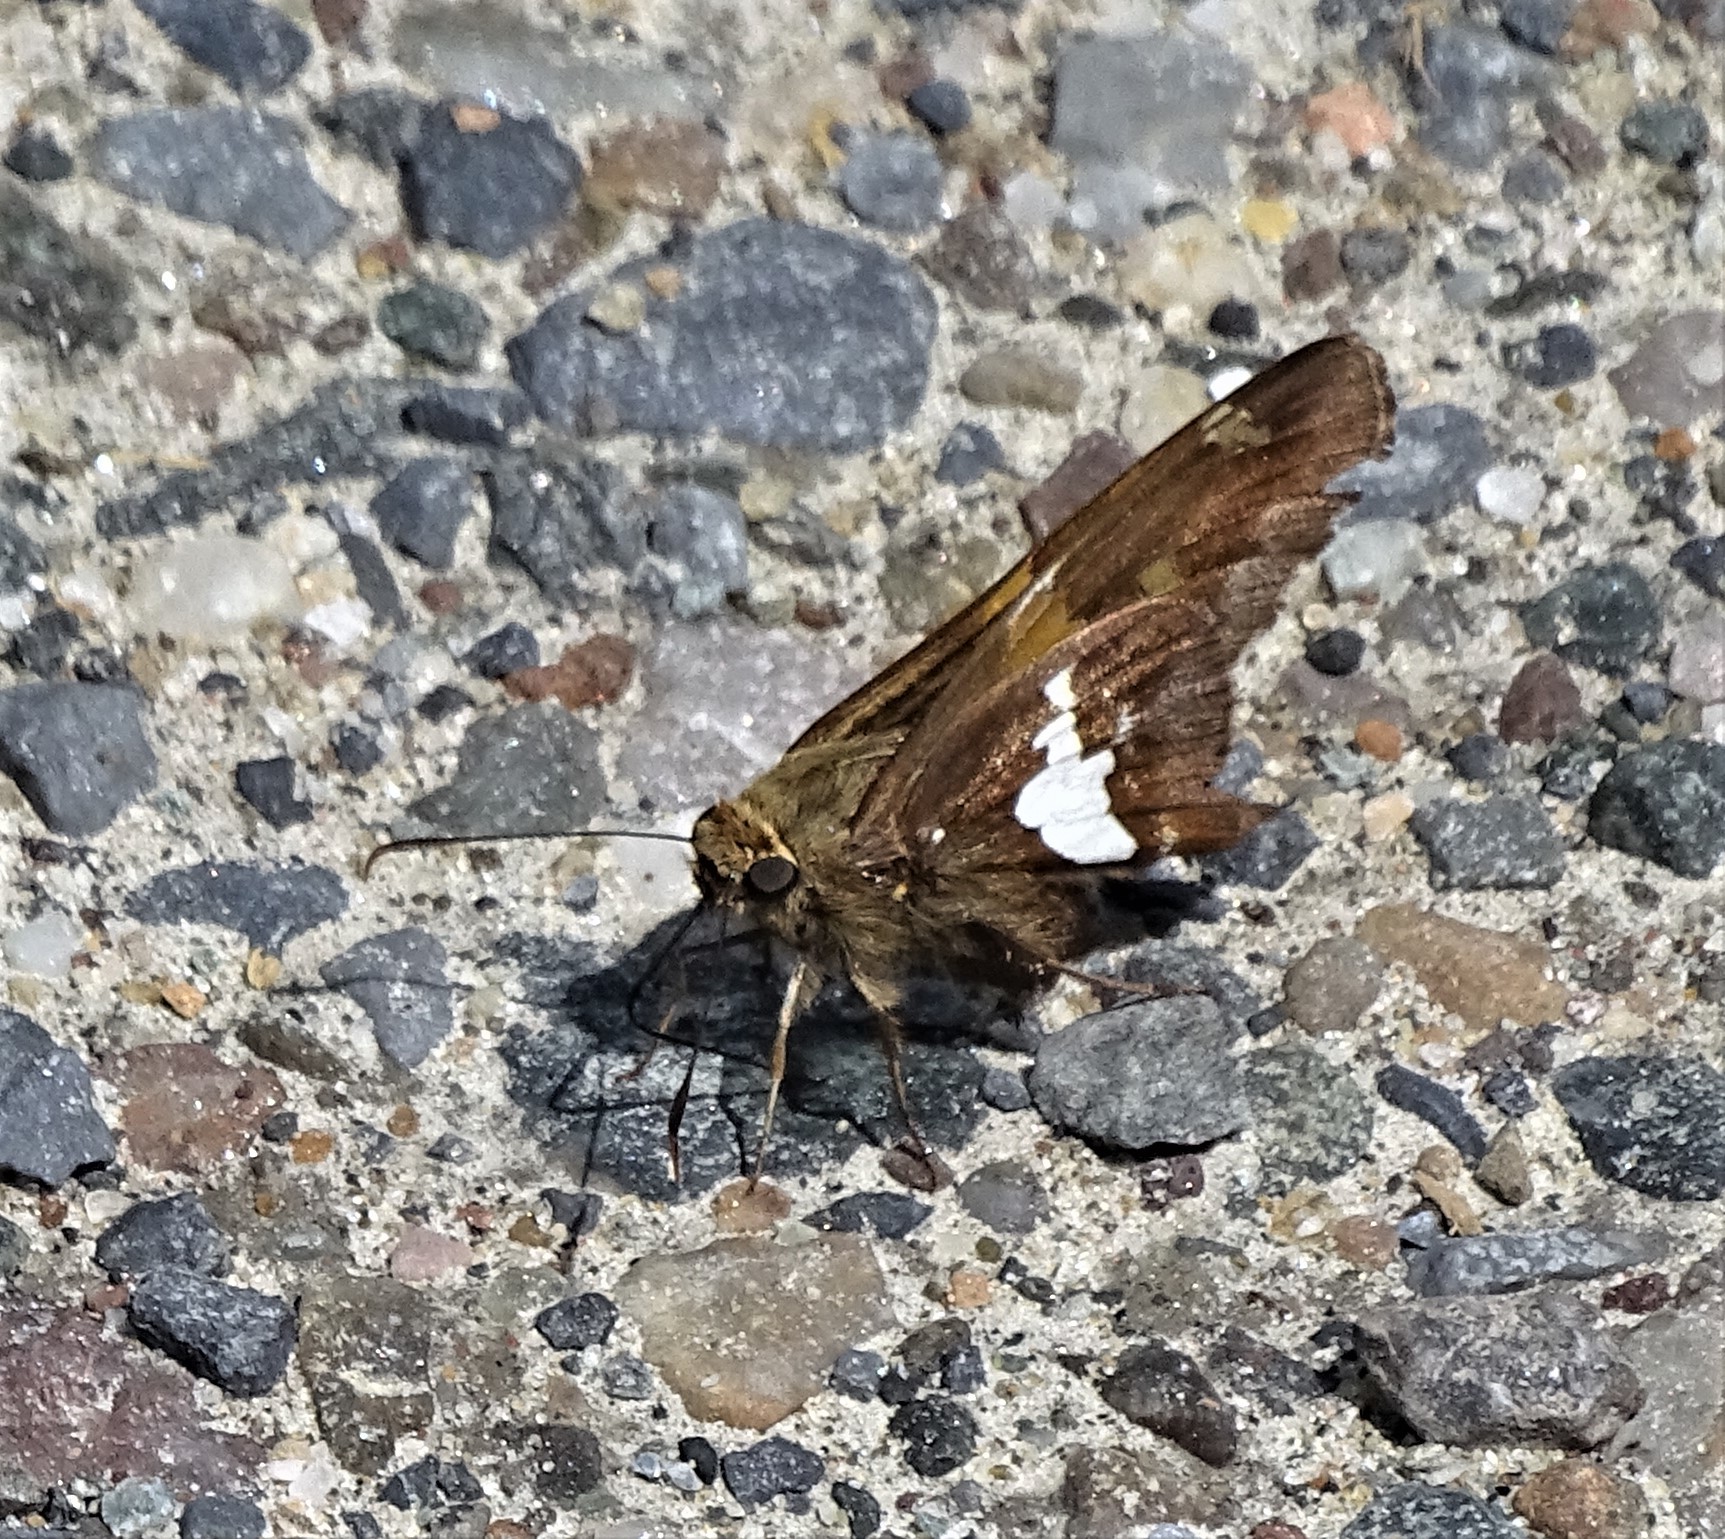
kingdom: Animalia
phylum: Arthropoda
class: Insecta
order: Lepidoptera
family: Hesperiidae
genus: Epargyreus
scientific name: Epargyreus clarus
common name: Silver-spotted skipper
